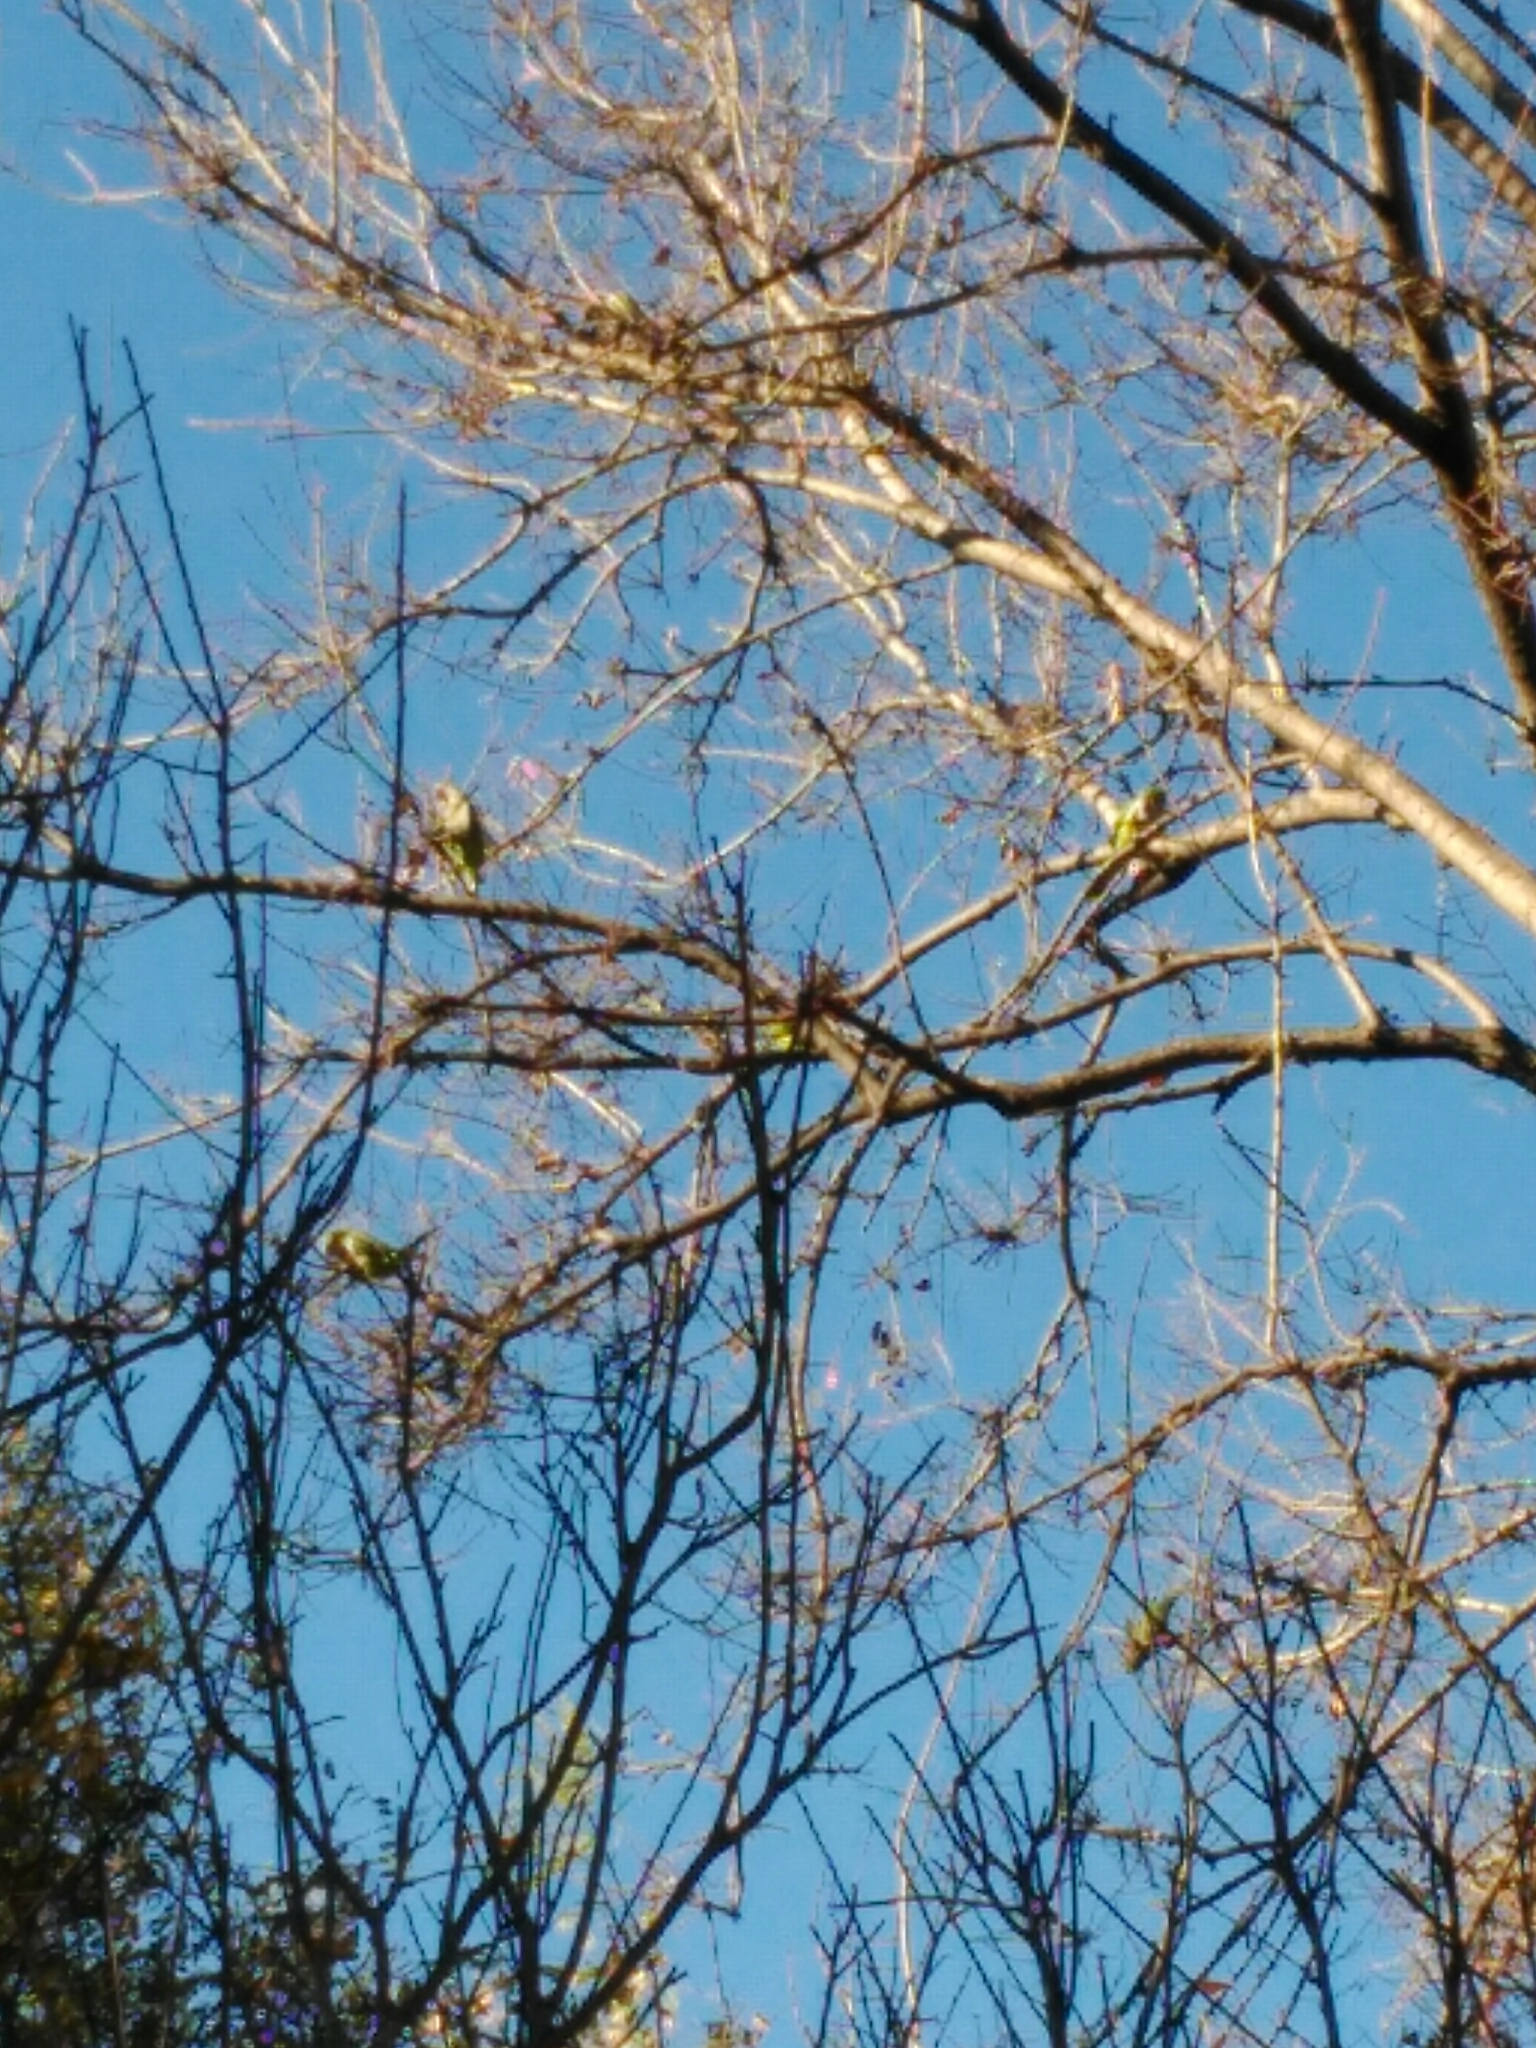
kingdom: Animalia
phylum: Chordata
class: Aves
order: Psittaciformes
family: Psittacidae
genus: Myiopsitta
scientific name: Myiopsitta monachus
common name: Monk parakeet
